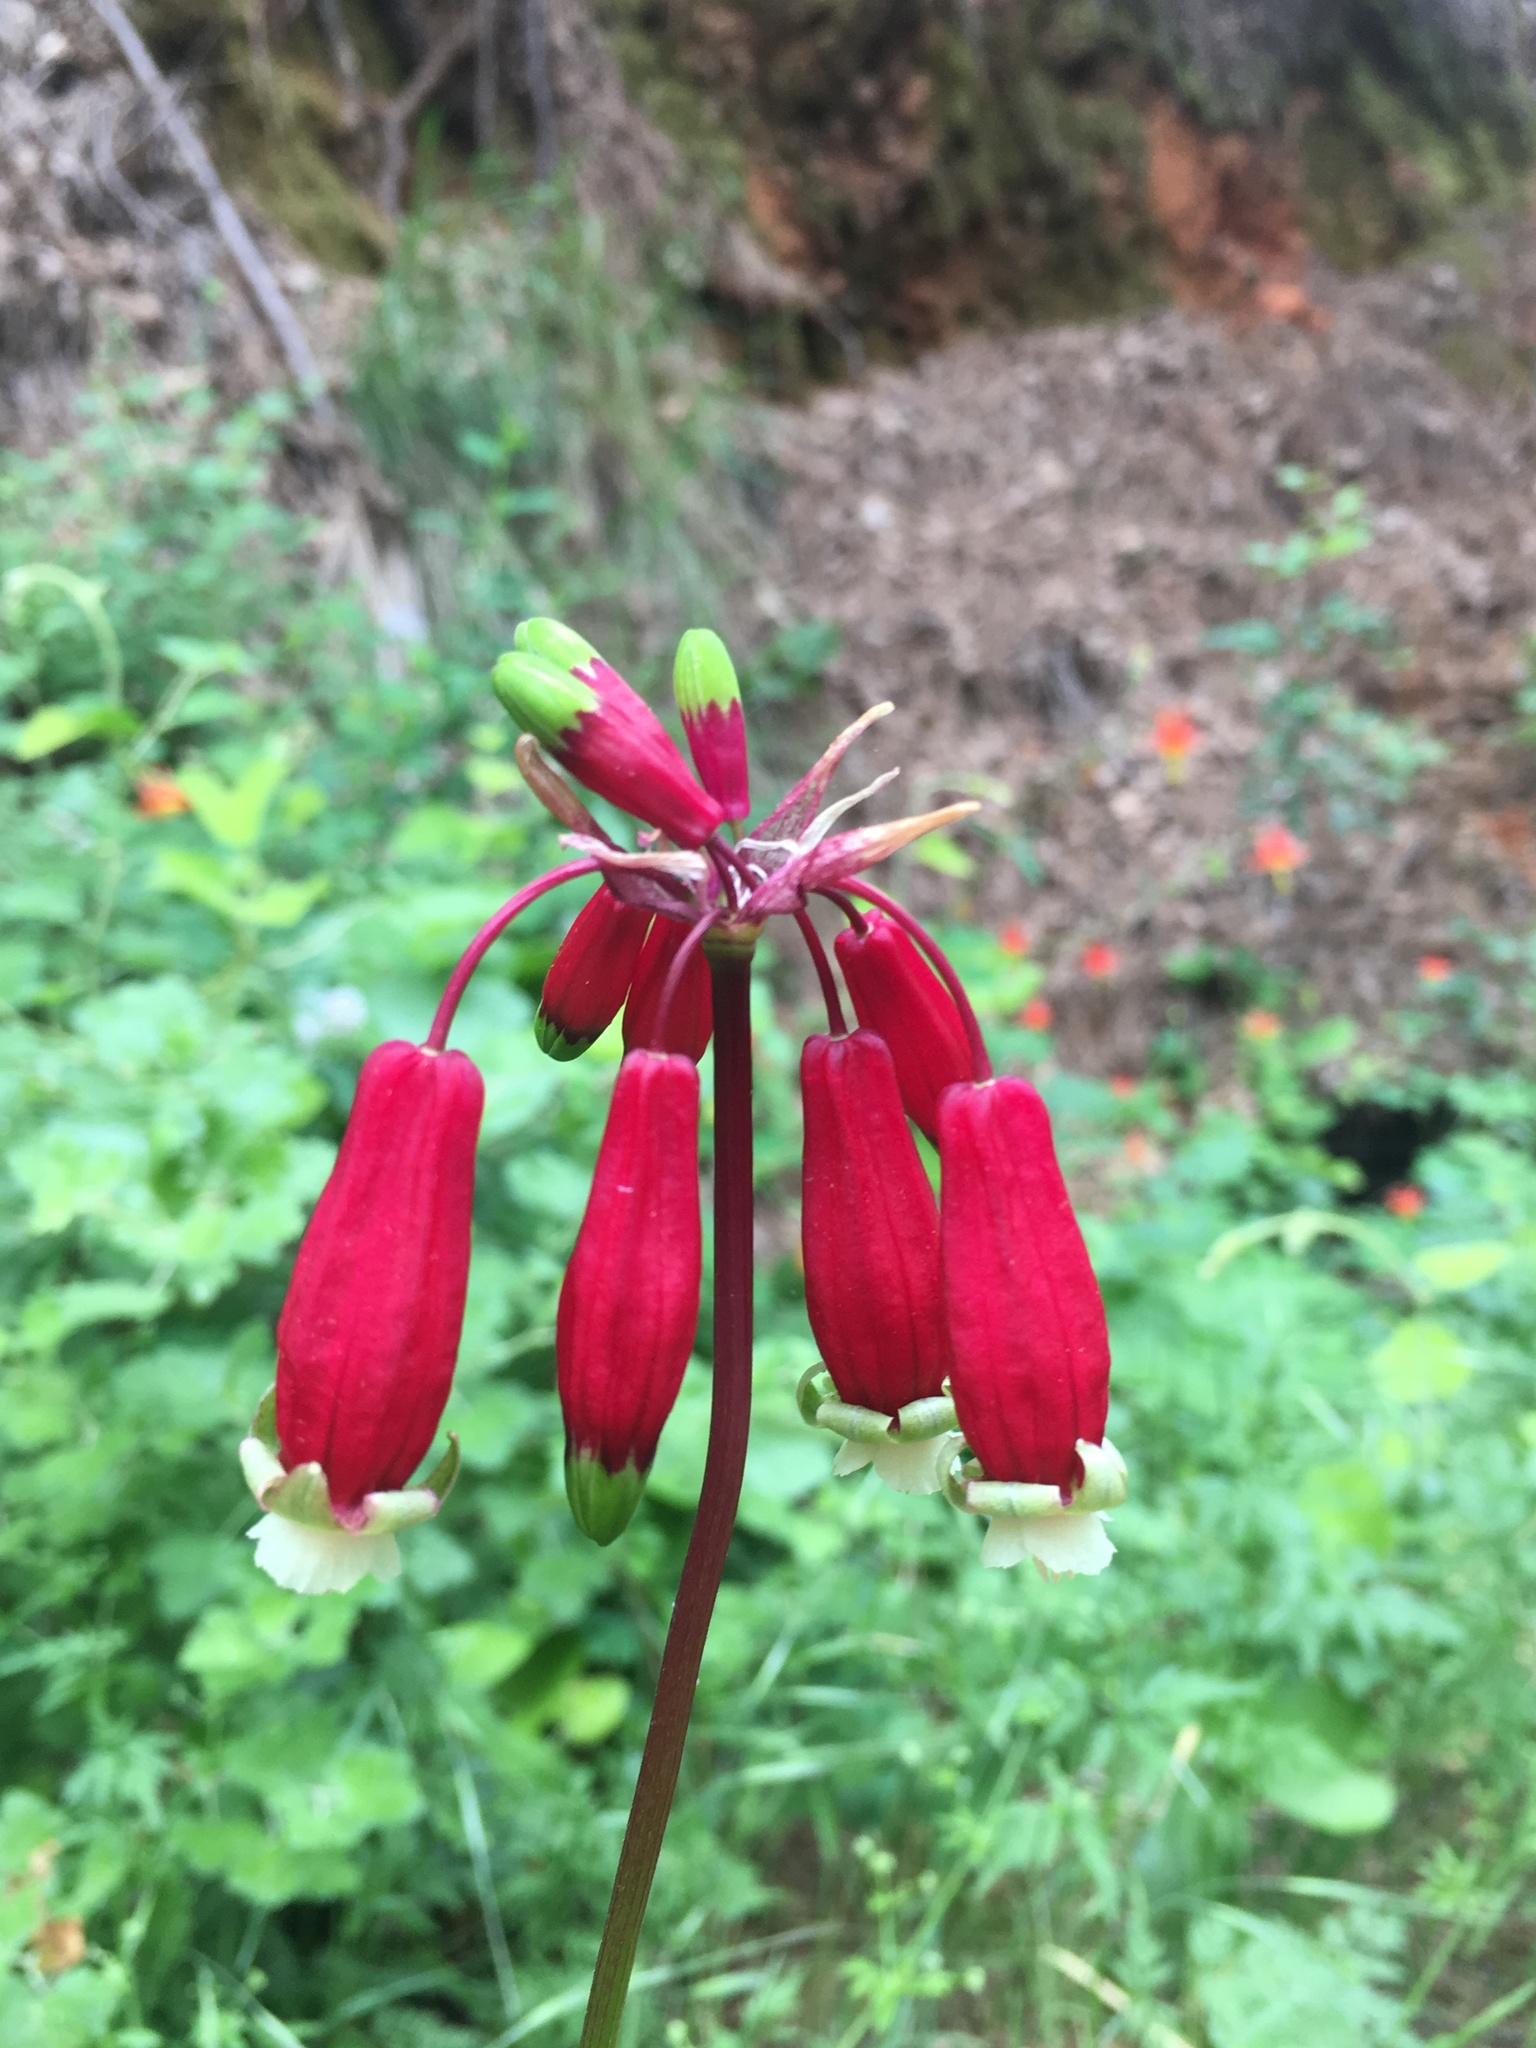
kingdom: Plantae
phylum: Tracheophyta
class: Liliopsida
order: Asparagales
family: Asparagaceae
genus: Dichelostemma
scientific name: Dichelostemma ida-maia
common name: Firecracker-flower
